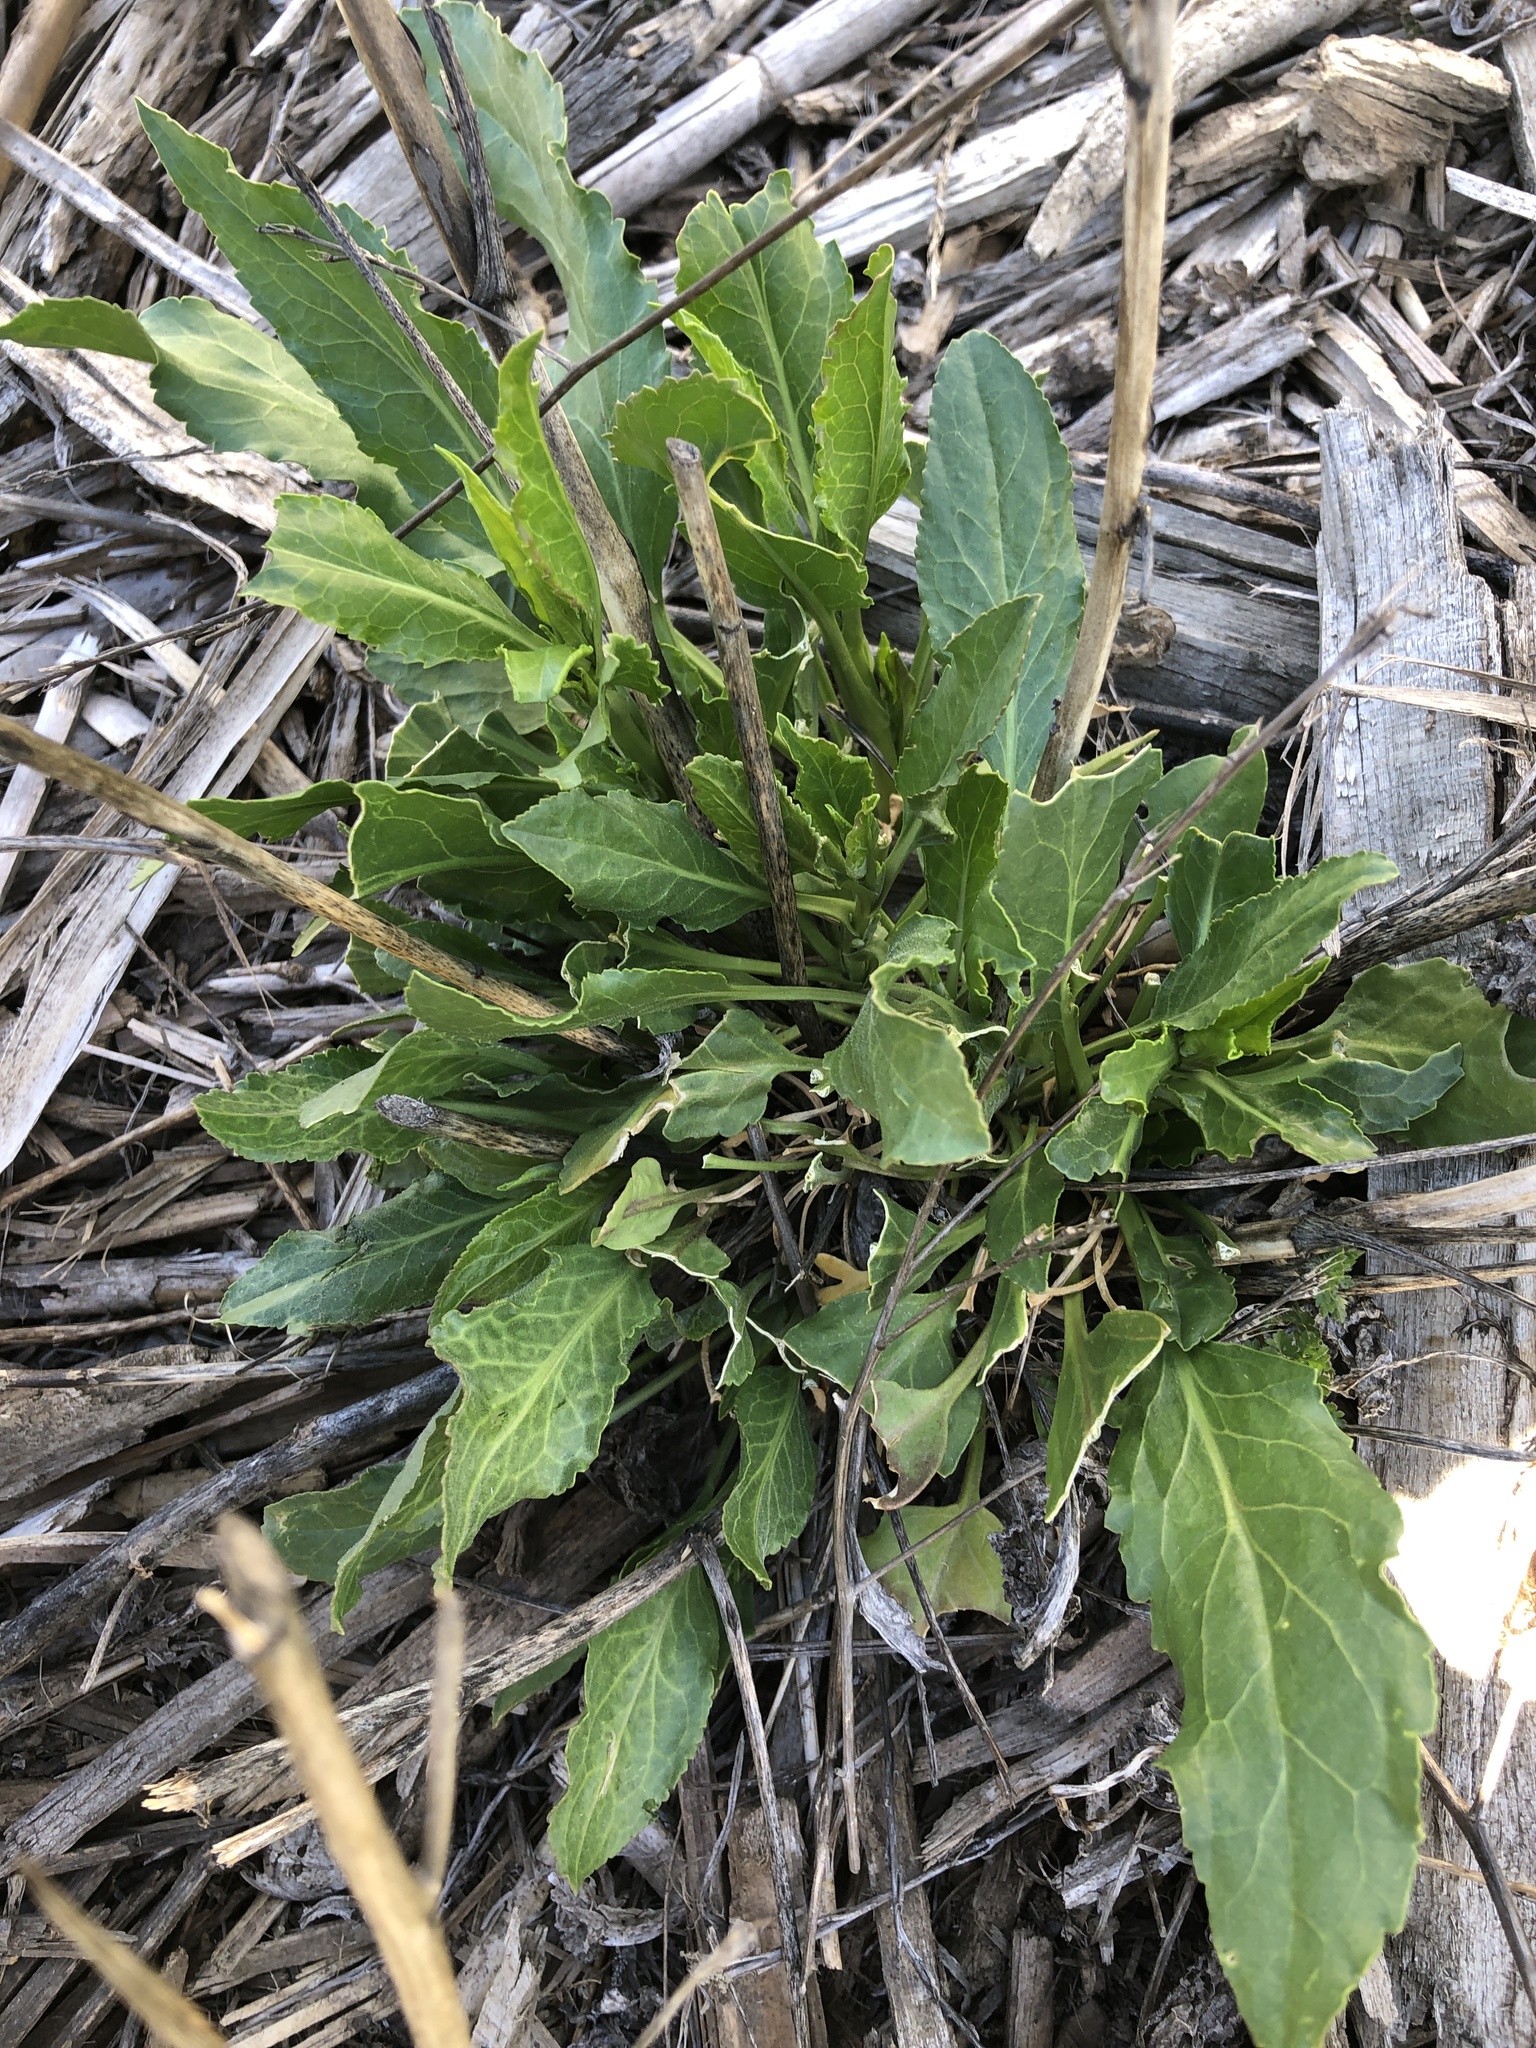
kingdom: Plantae
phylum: Tracheophyta
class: Magnoliopsida
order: Brassicales
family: Brassicaceae
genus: Lepidium
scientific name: Lepidium latifolium
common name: Dittander
